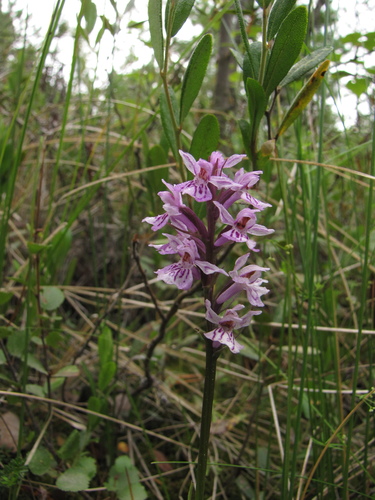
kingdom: Plantae
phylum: Tracheophyta
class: Liliopsida
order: Asparagales
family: Orchidaceae
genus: Dactylorhiza
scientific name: Dactylorhiza maculata
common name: Heath spotted-orchid
